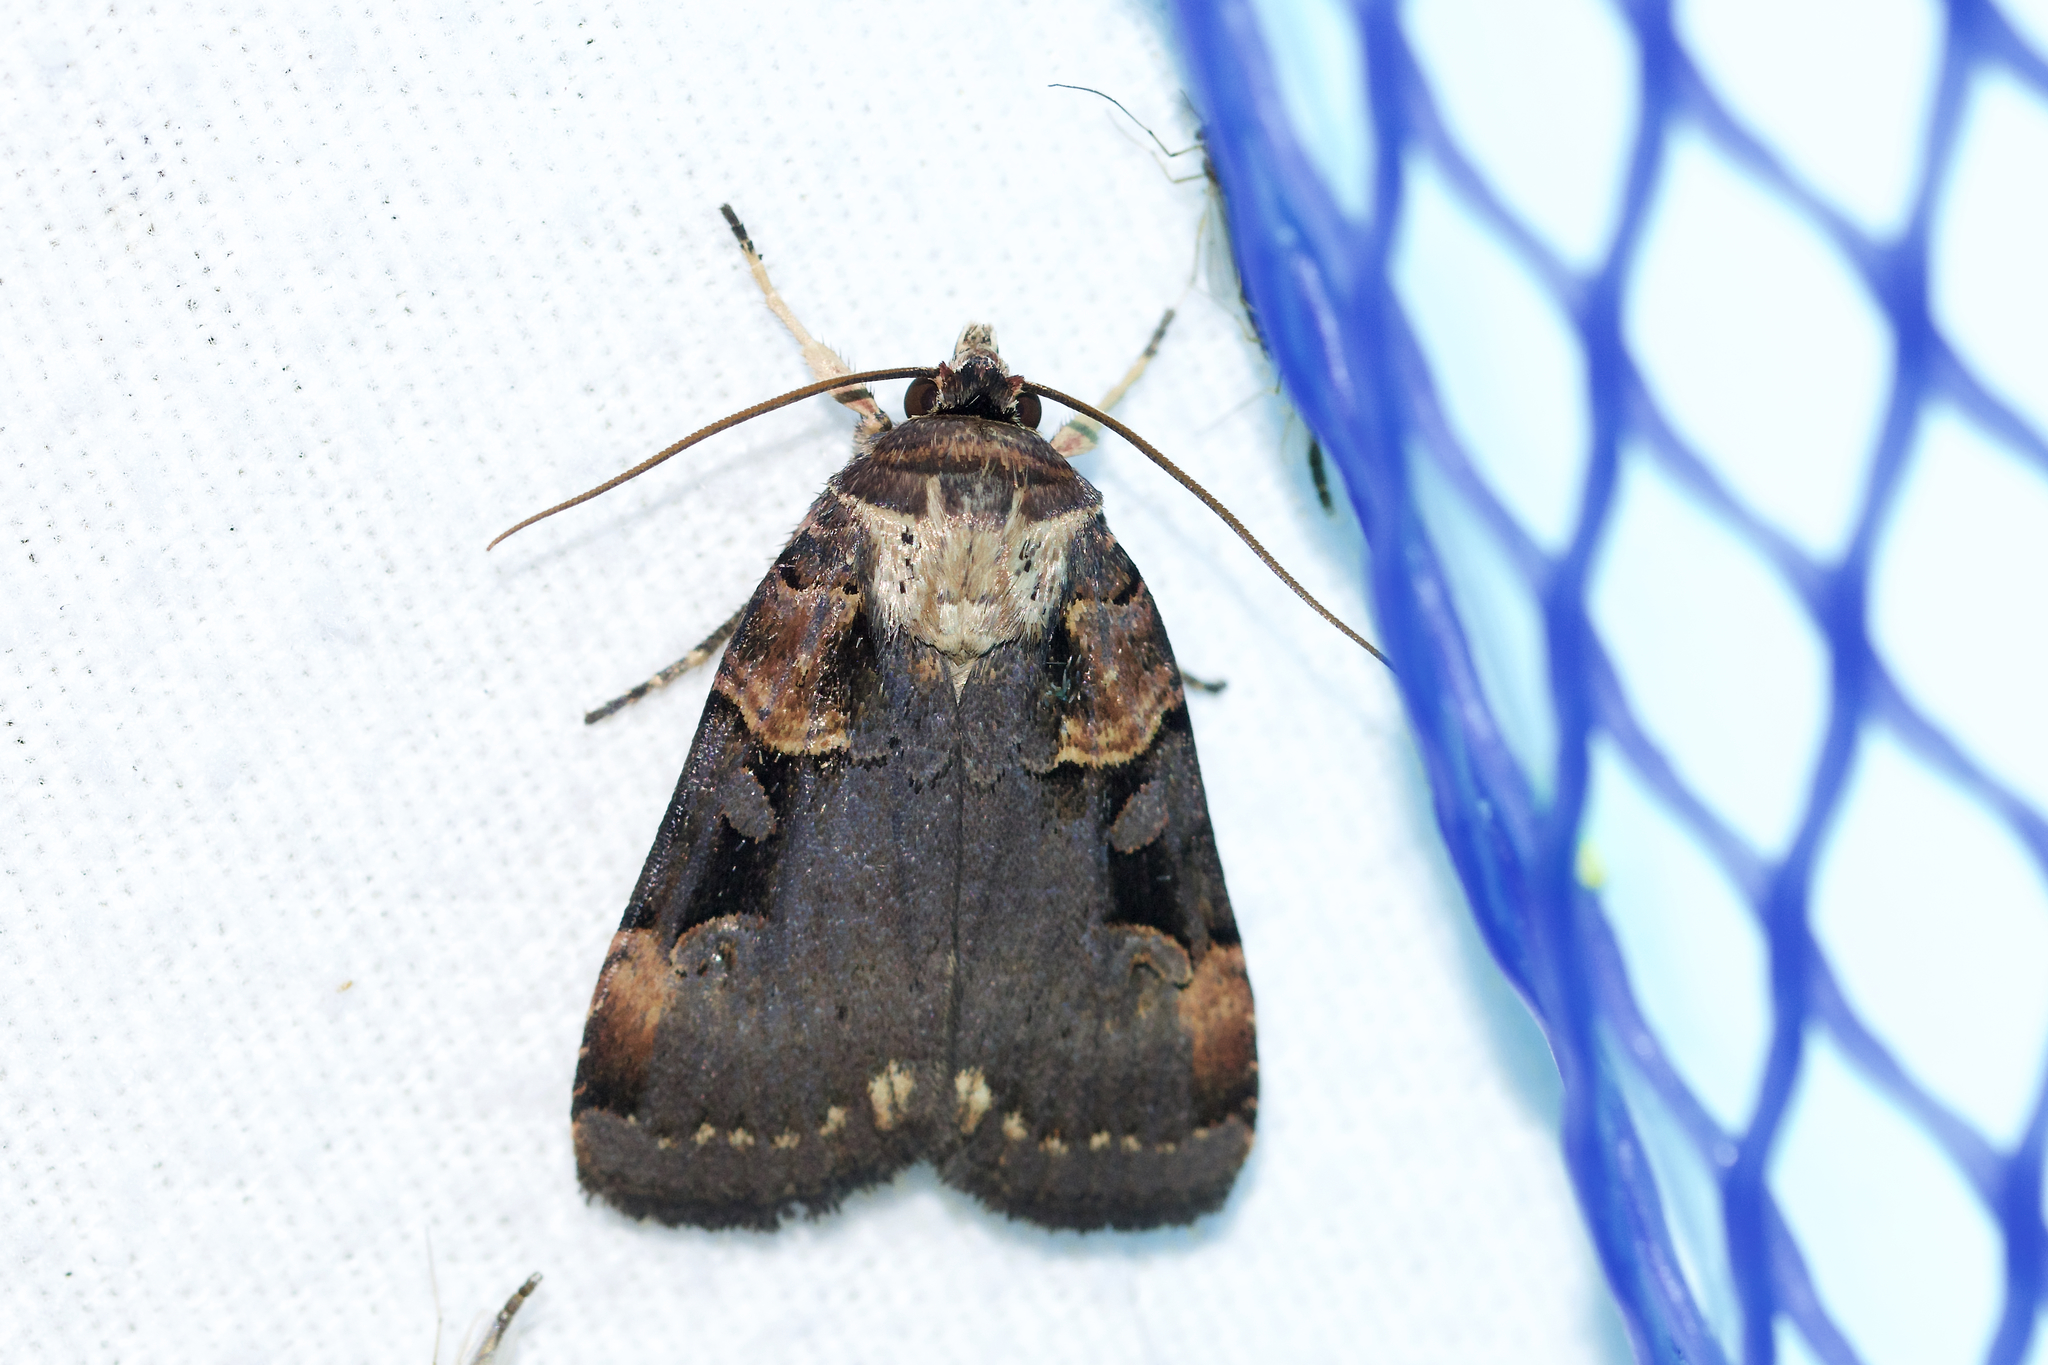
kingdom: Animalia
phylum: Arthropoda
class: Insecta
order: Lepidoptera
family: Noctuidae
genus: Pseudohermonassa
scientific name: Pseudohermonassa bicarnea
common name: Pink spotted dart
